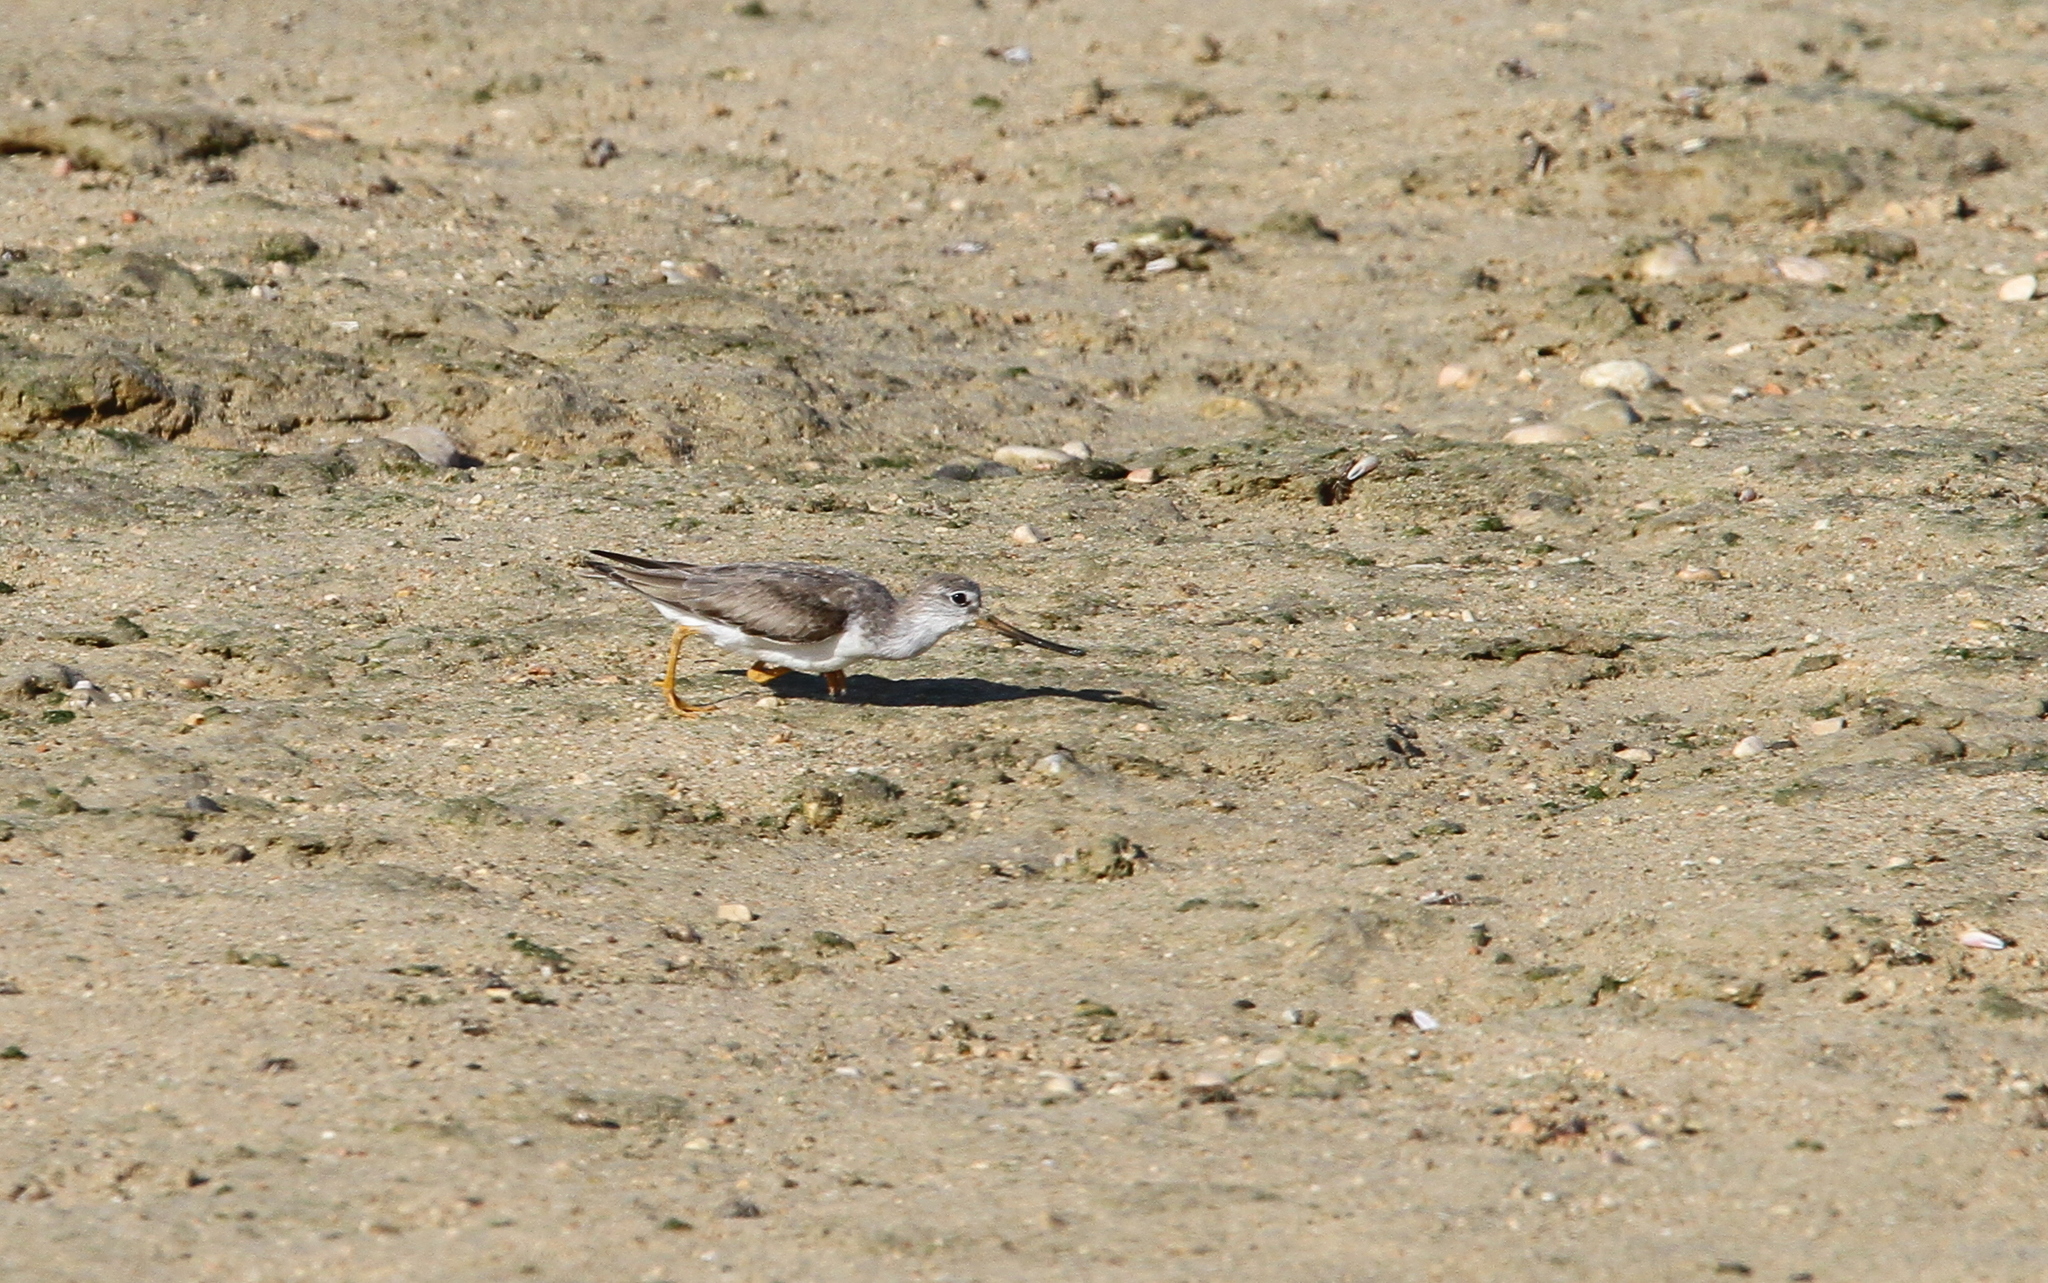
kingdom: Animalia
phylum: Chordata
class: Aves
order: Charadriiformes
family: Scolopacidae
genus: Xenus
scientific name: Xenus cinereus
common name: Terek sandpiper
